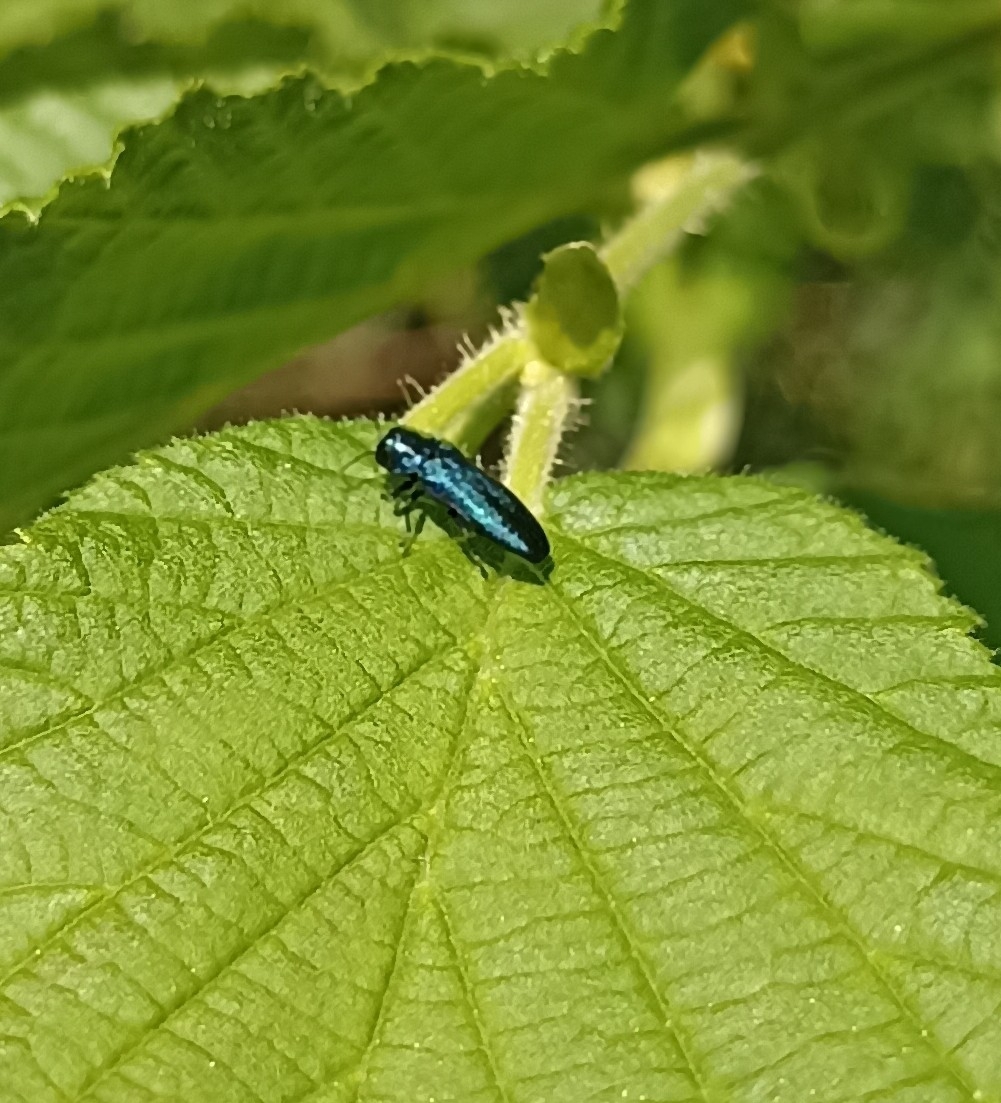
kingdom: Animalia
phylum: Arthropoda
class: Insecta
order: Coleoptera
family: Buprestidae
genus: Agrilus
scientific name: Agrilus cyanescens
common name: Bluish borer beetle
